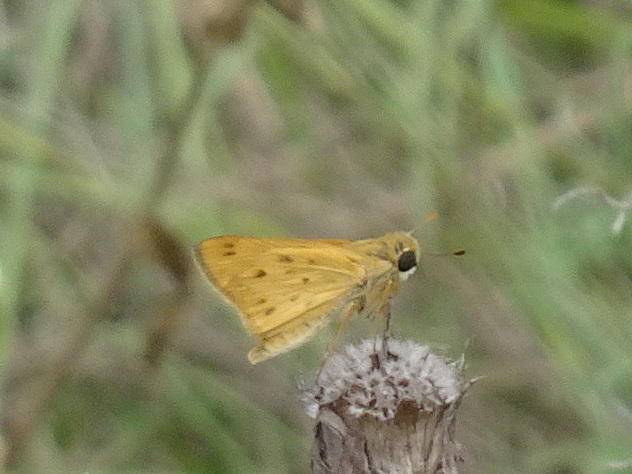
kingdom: Animalia
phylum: Arthropoda
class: Insecta
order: Lepidoptera
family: Hesperiidae
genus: Hylephila
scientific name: Hylephila phyleus
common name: Fiery skipper
